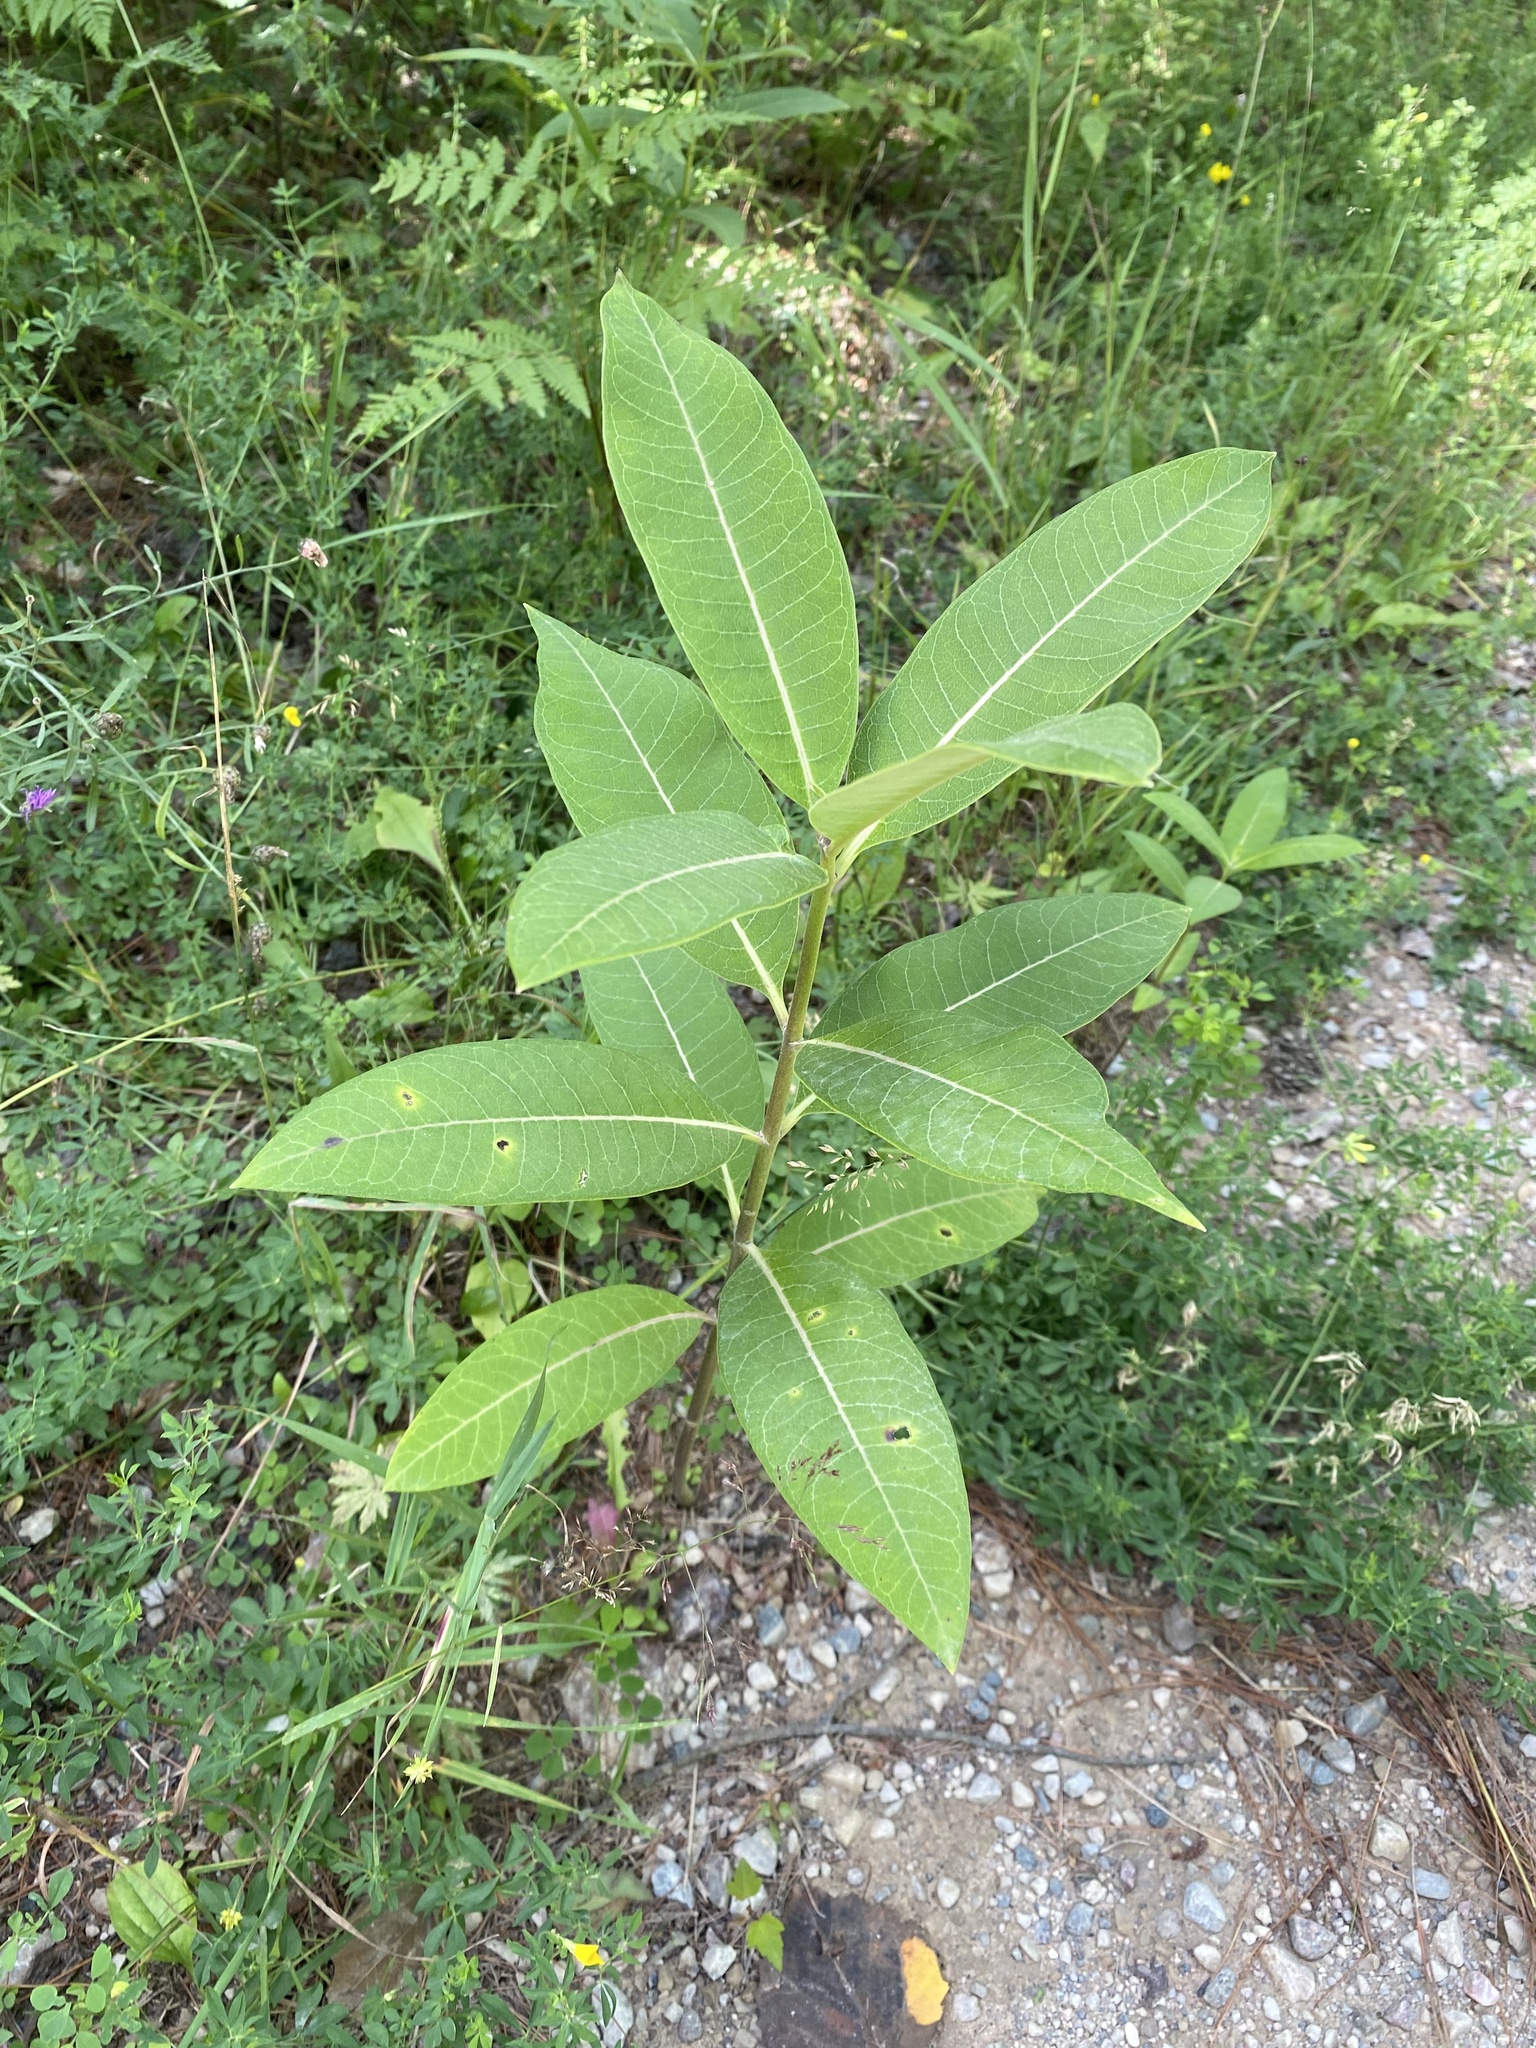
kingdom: Plantae
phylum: Tracheophyta
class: Magnoliopsida
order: Gentianales
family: Apocynaceae
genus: Asclepias
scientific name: Asclepias syriaca
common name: Common milkweed
